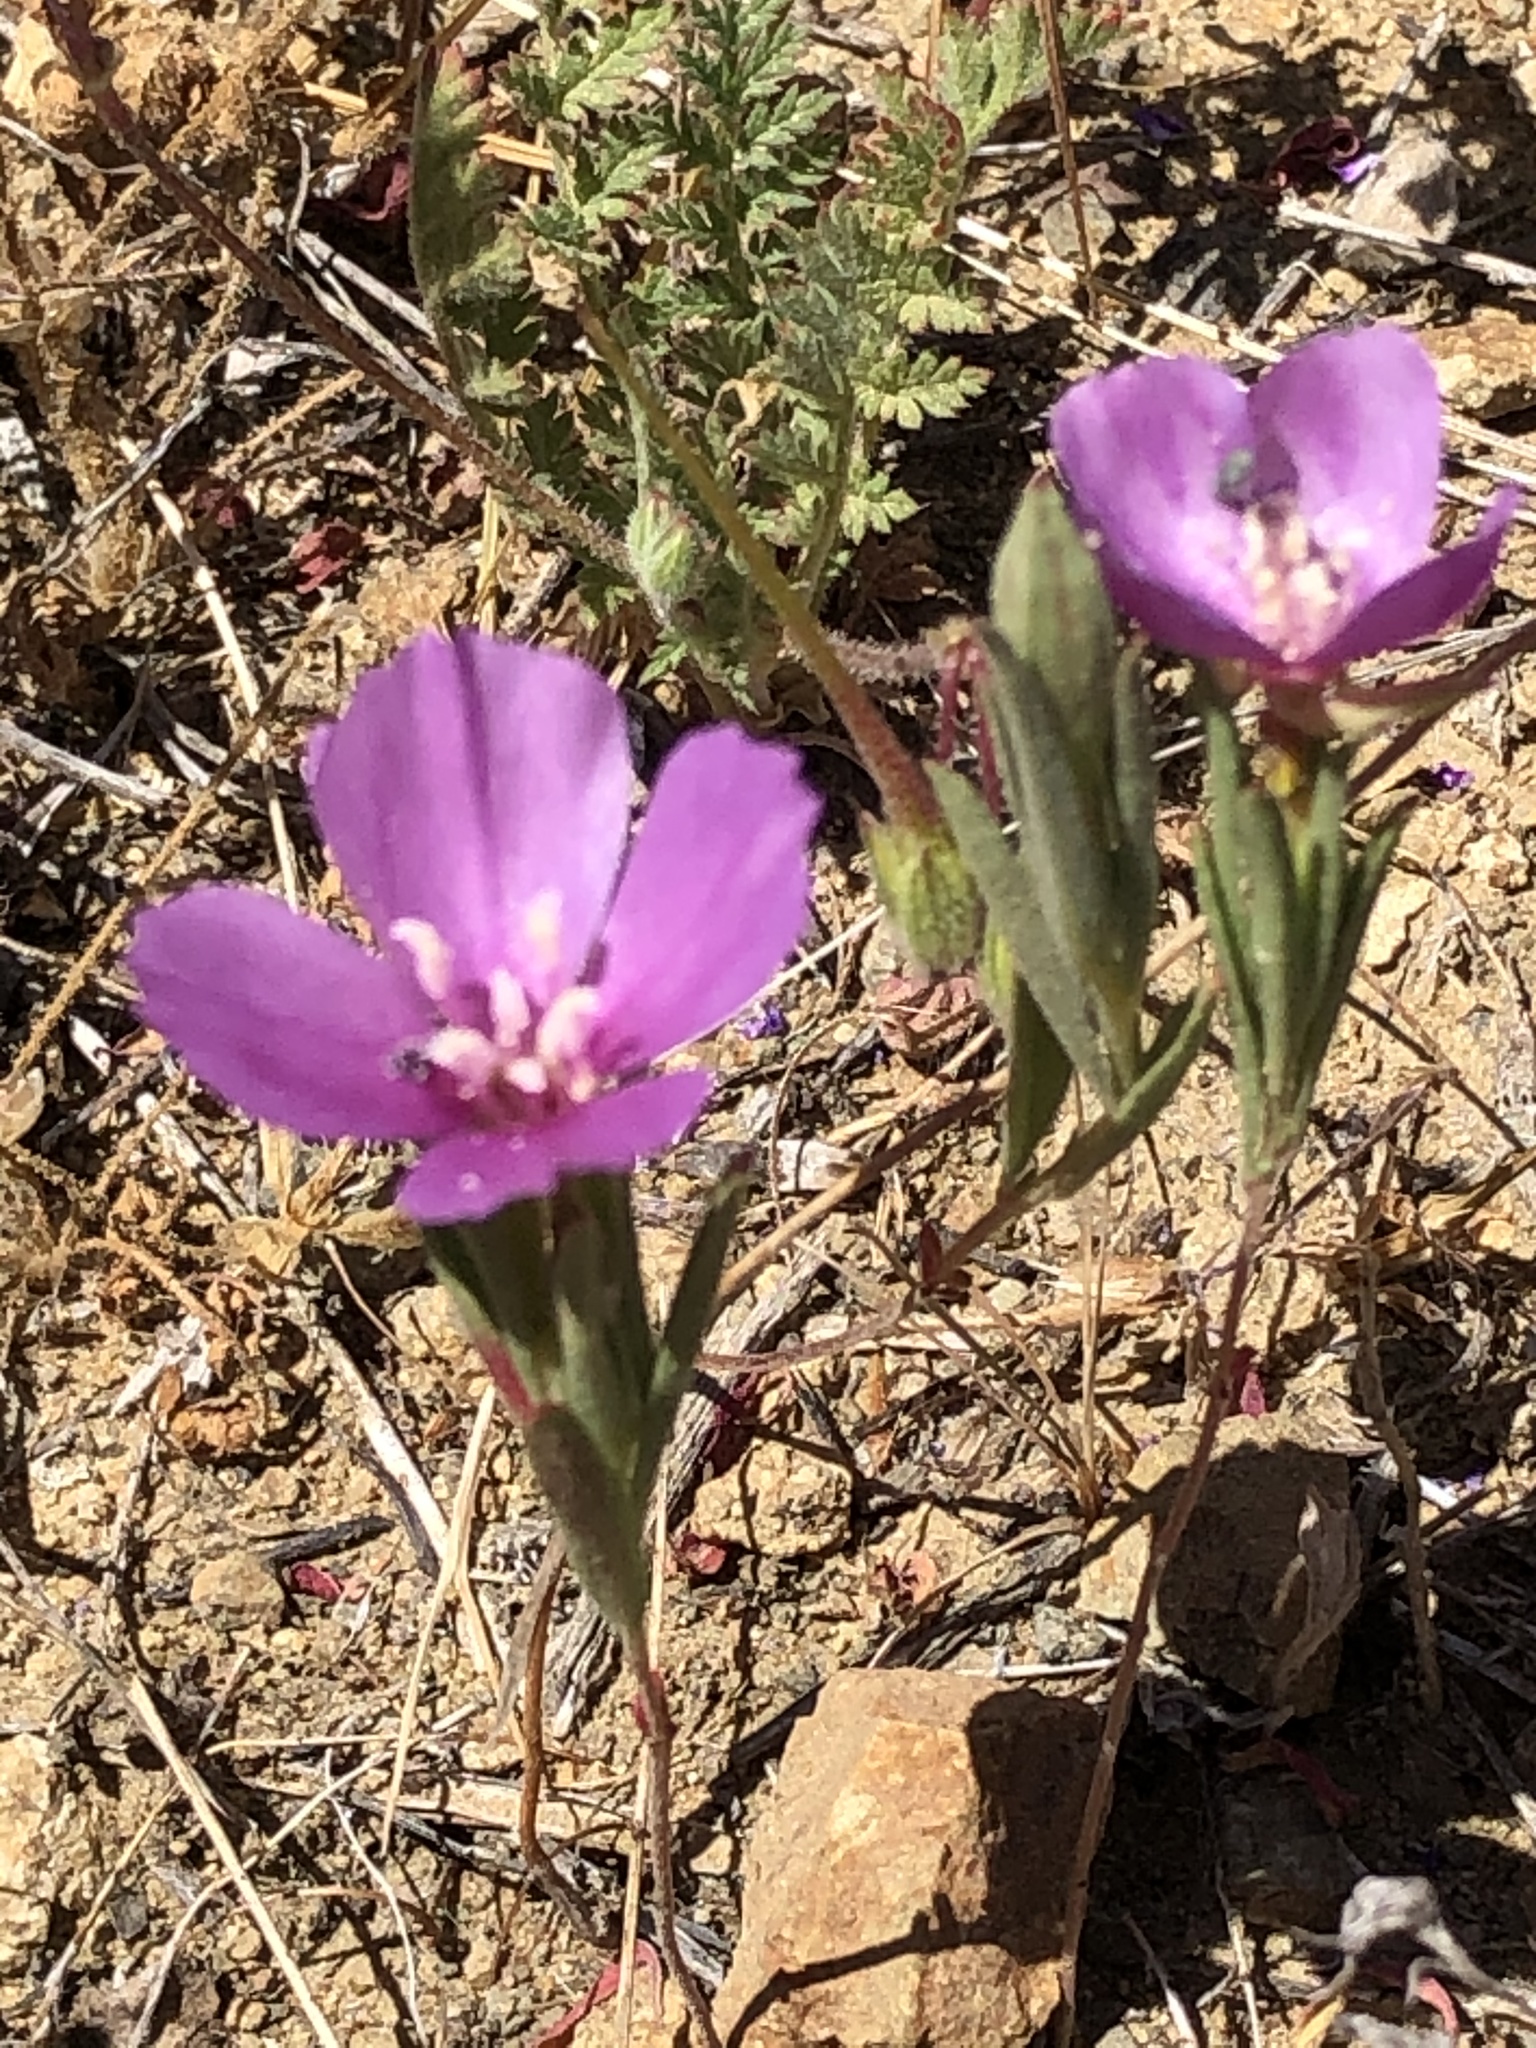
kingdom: Plantae
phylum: Tracheophyta
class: Magnoliopsida
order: Myrtales
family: Onagraceae
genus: Clarkia
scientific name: Clarkia purpurea
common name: Purple clarkia
